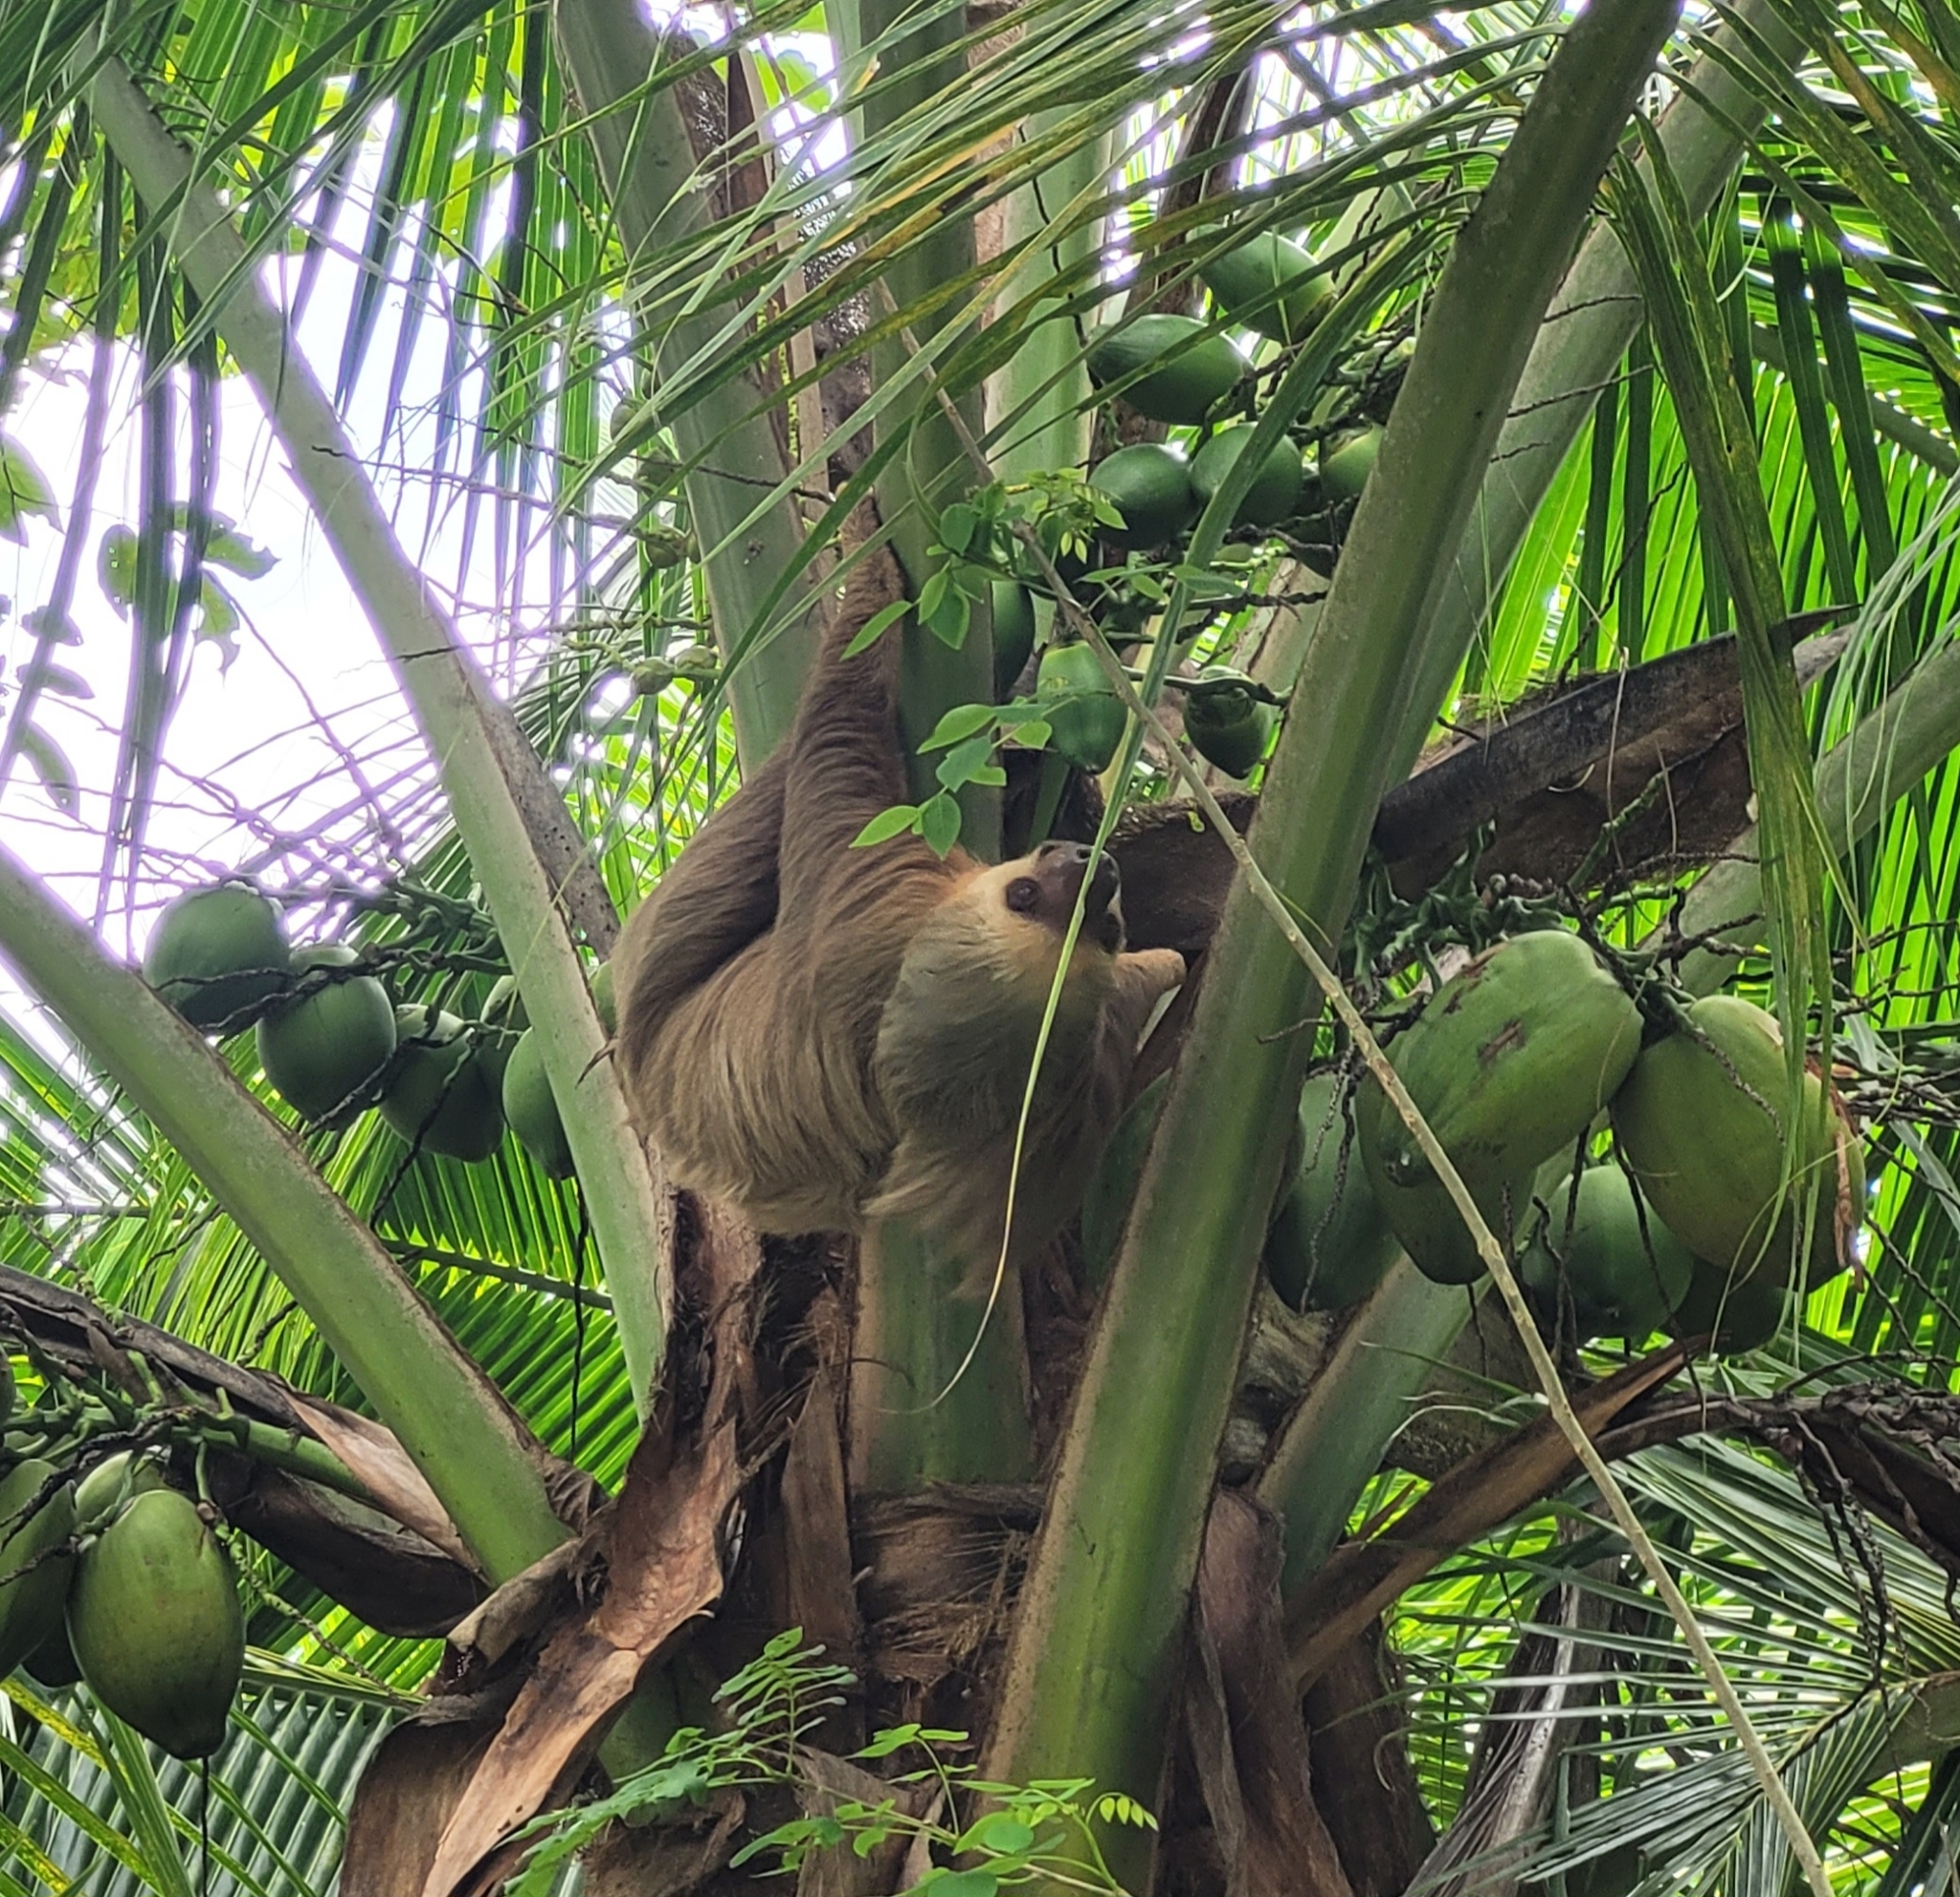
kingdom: Animalia
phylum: Chordata
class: Mammalia
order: Pilosa
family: Megalonychidae
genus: Choloepus
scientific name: Choloepus hoffmanni
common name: Hoffmann's two-toed sloth
